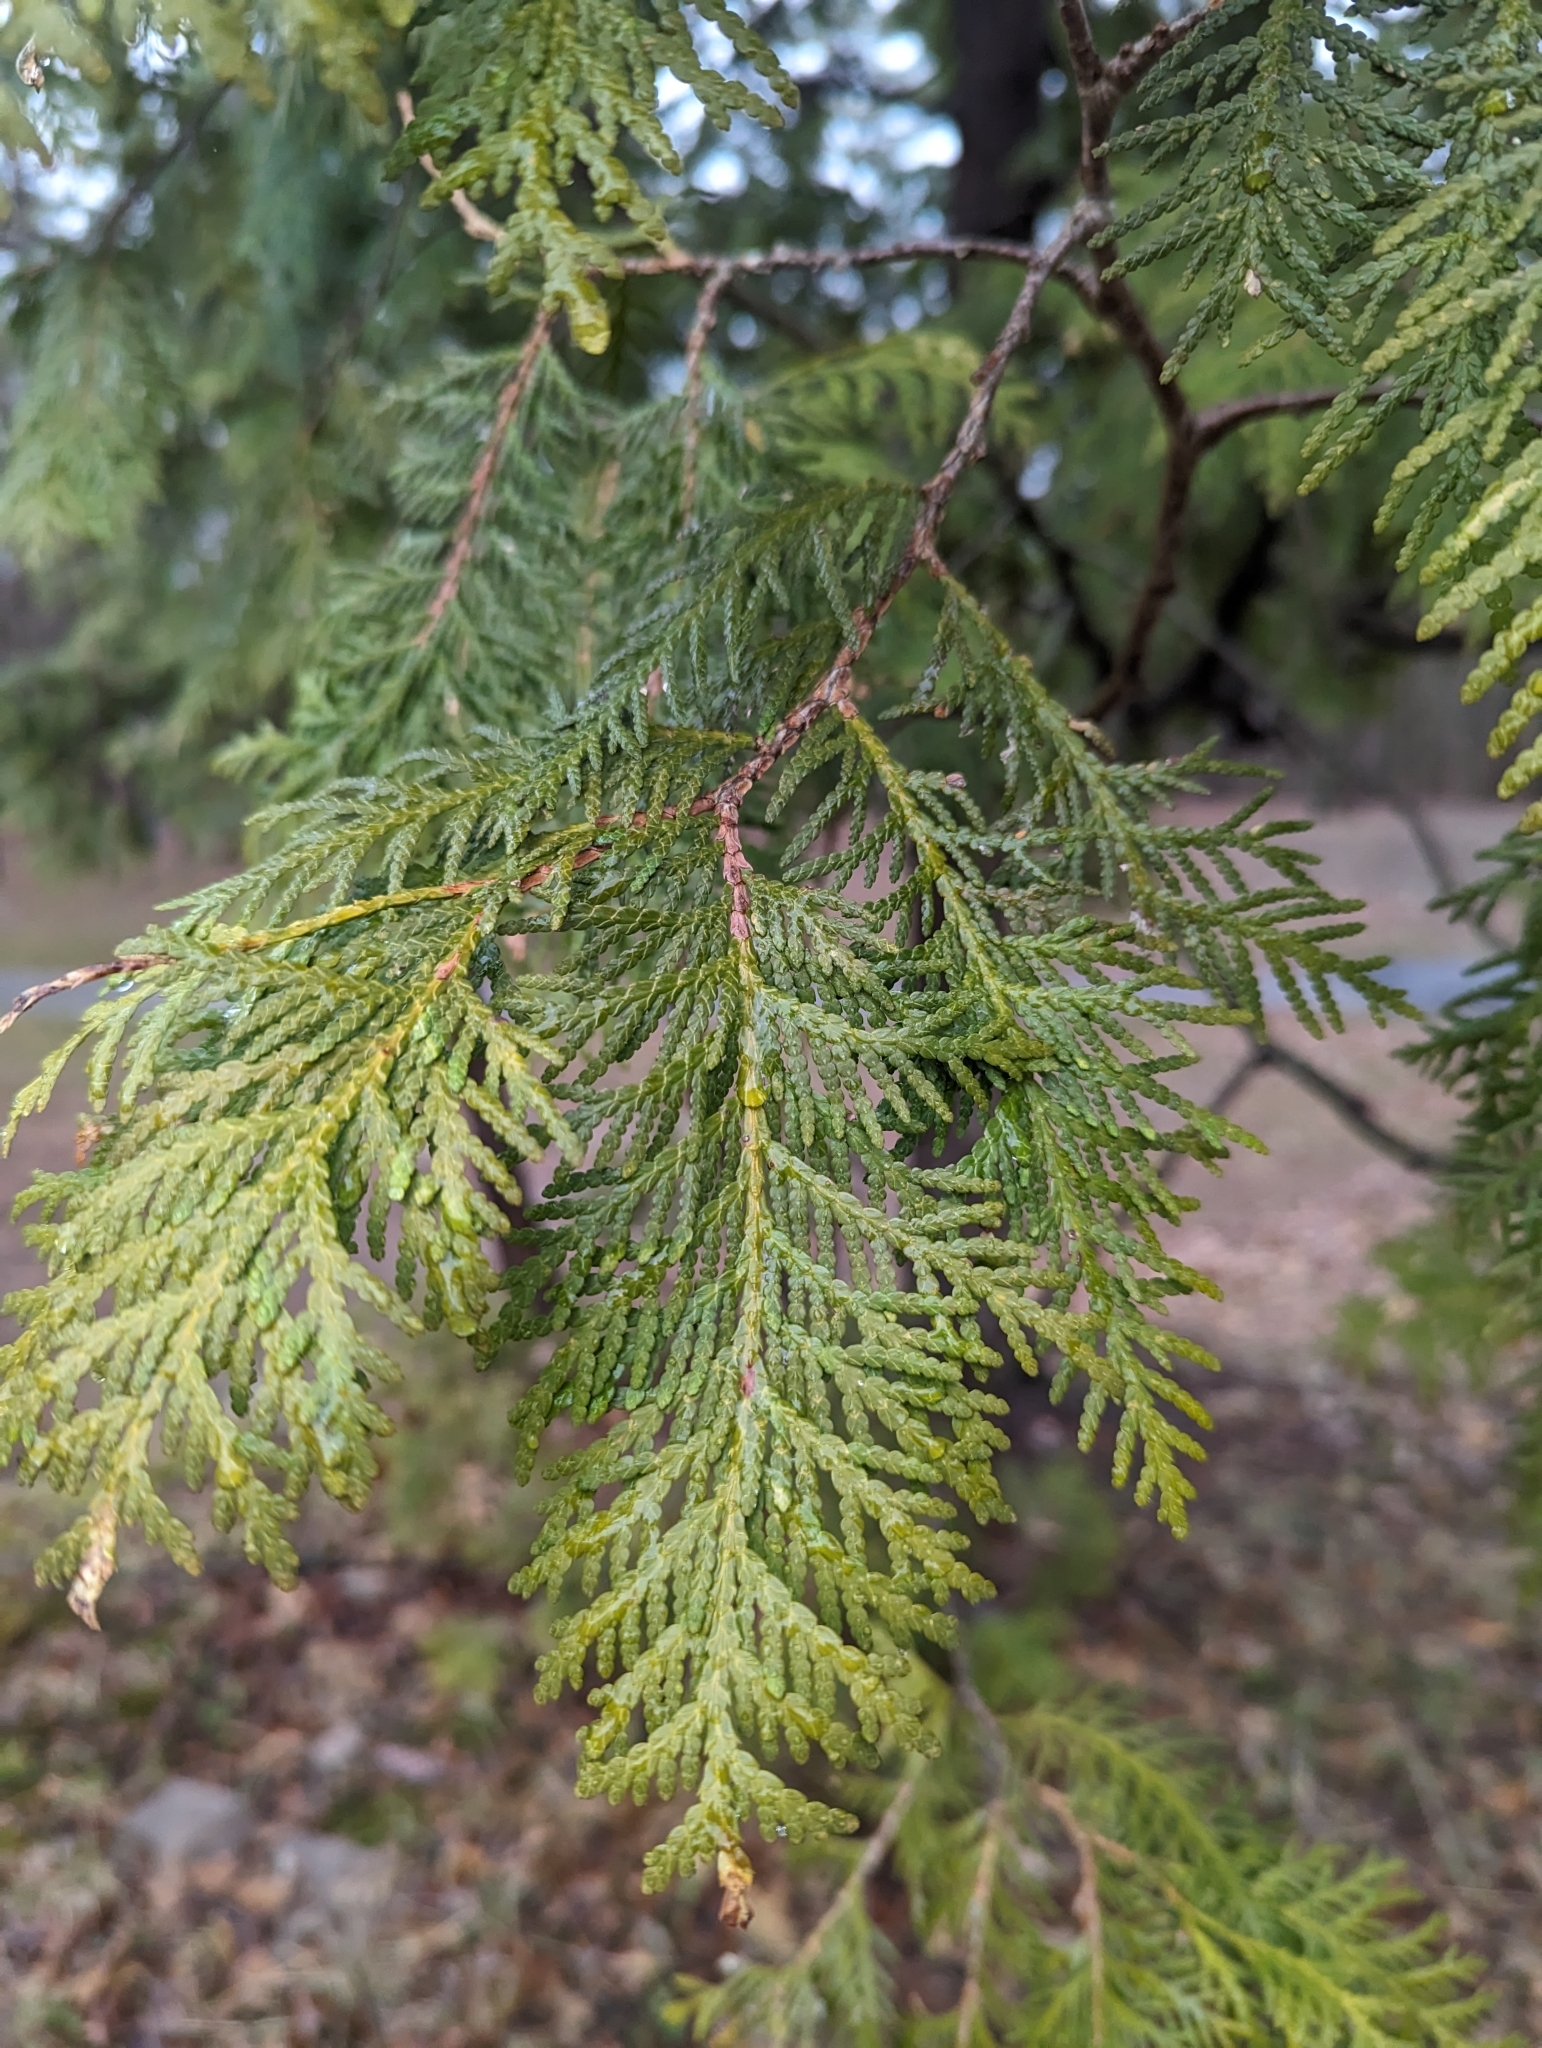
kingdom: Plantae
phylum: Tracheophyta
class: Pinopsida
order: Pinales
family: Cupressaceae
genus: Thuja
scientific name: Thuja occidentalis
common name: Northern white-cedar
